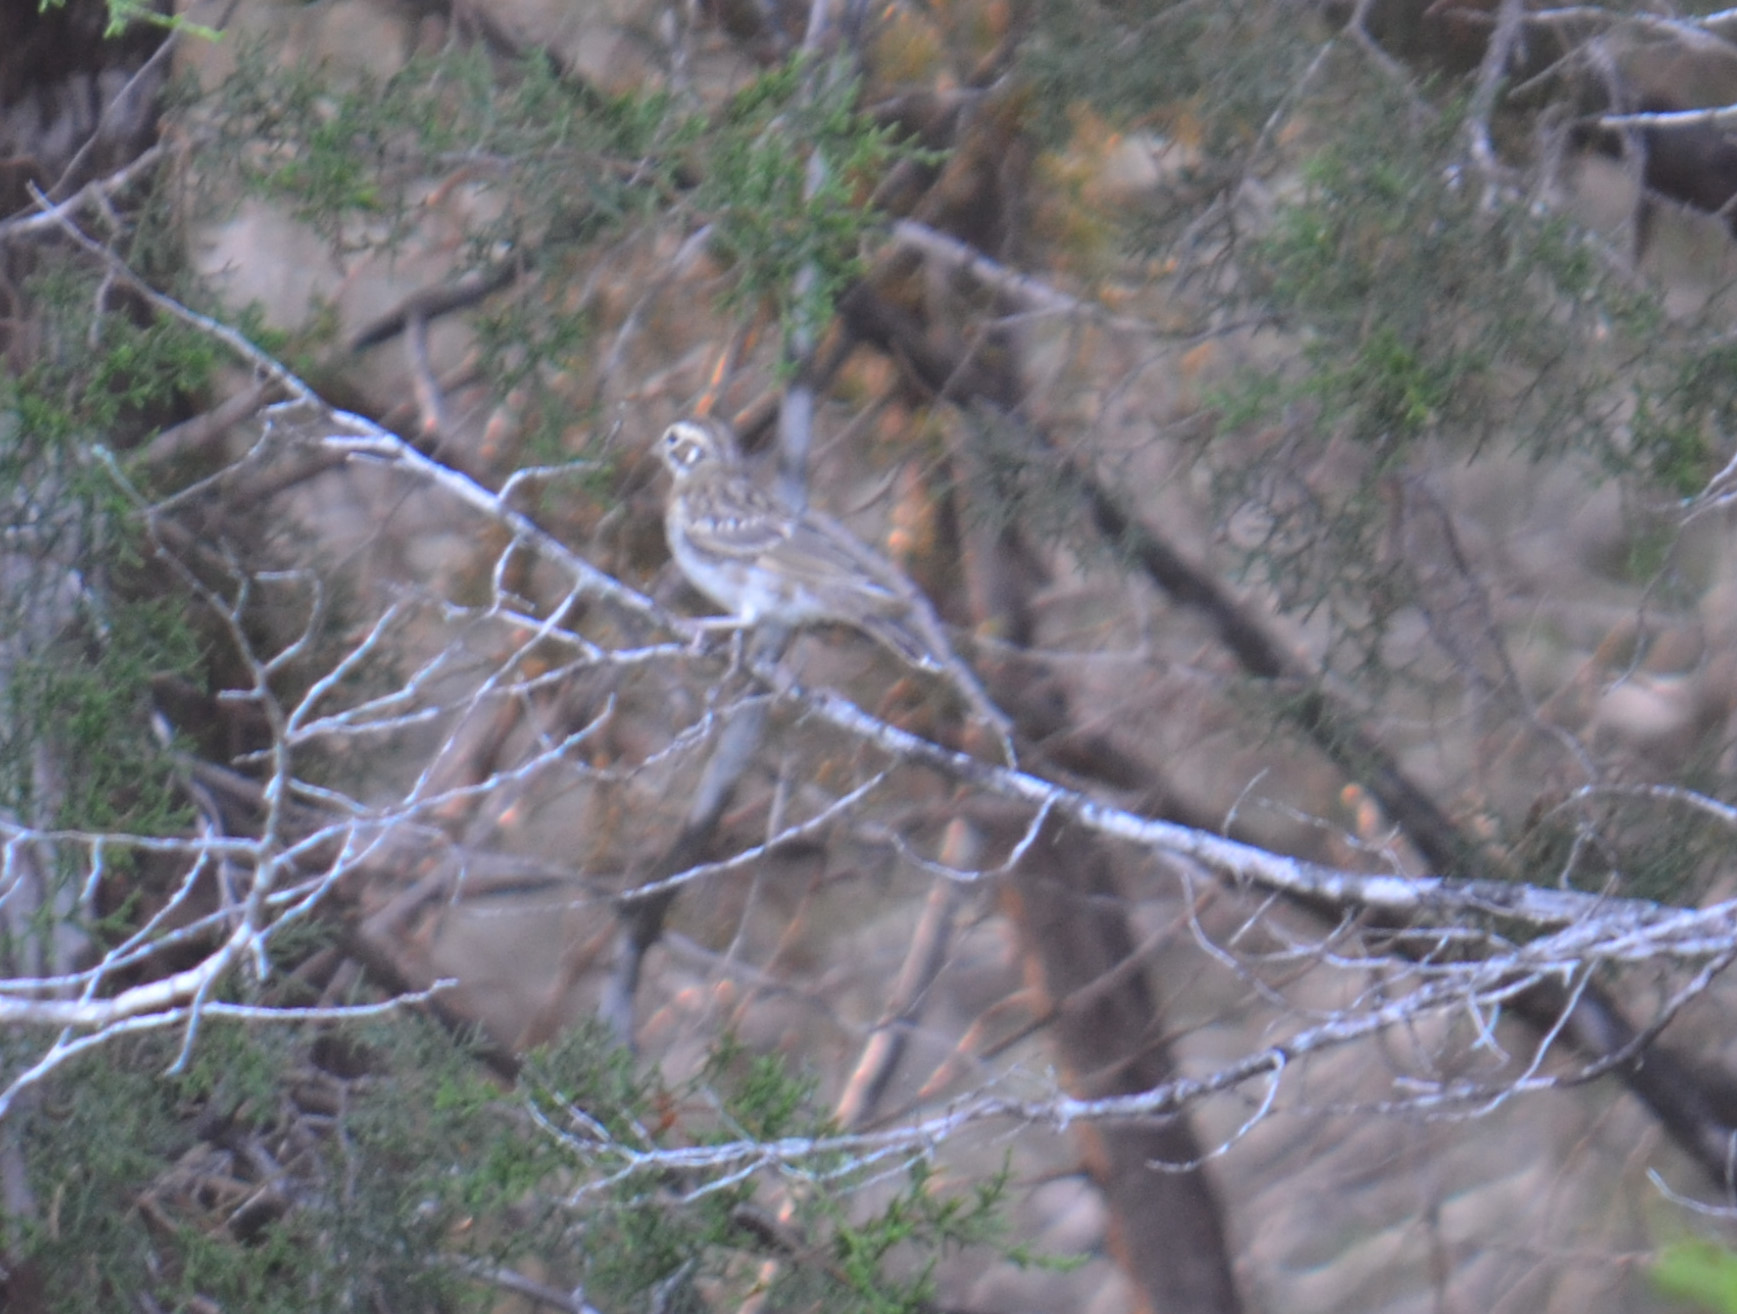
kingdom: Animalia
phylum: Chordata
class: Aves
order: Passeriformes
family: Passerellidae
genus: Chondestes
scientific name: Chondestes grammacus
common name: Lark sparrow
